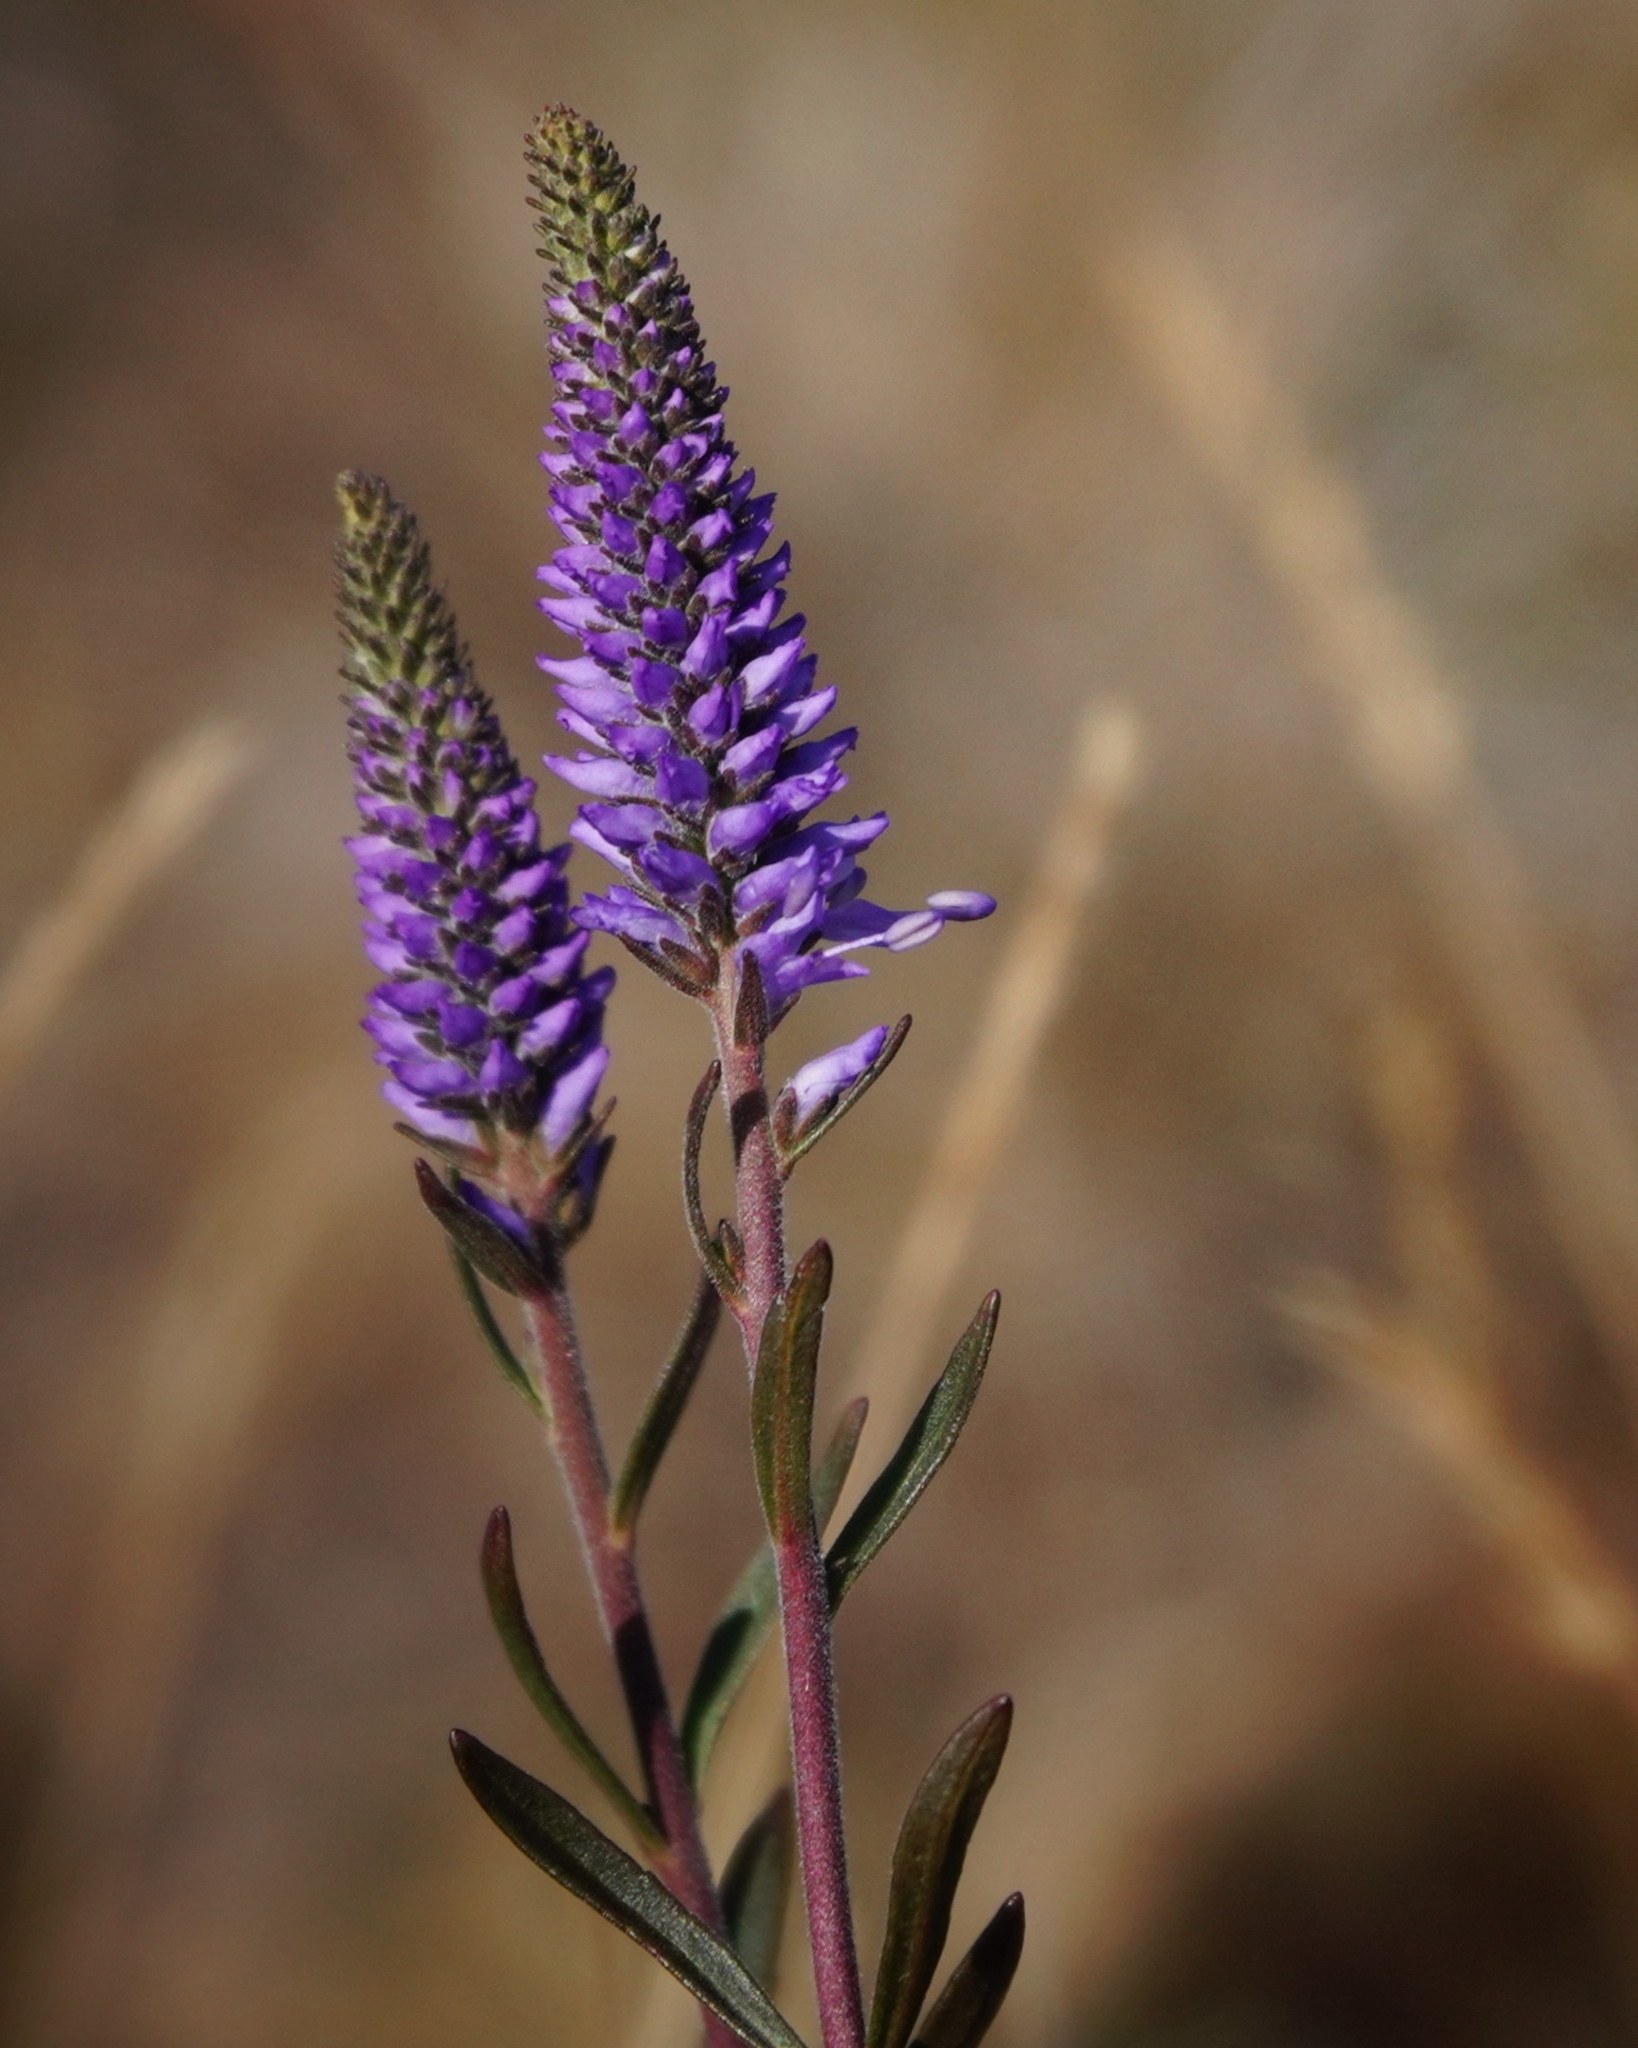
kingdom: Plantae
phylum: Tracheophyta
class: Magnoliopsida
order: Lamiales
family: Plantaginaceae
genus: Veronica
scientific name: Veronica spicata
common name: Spiked speedwell
